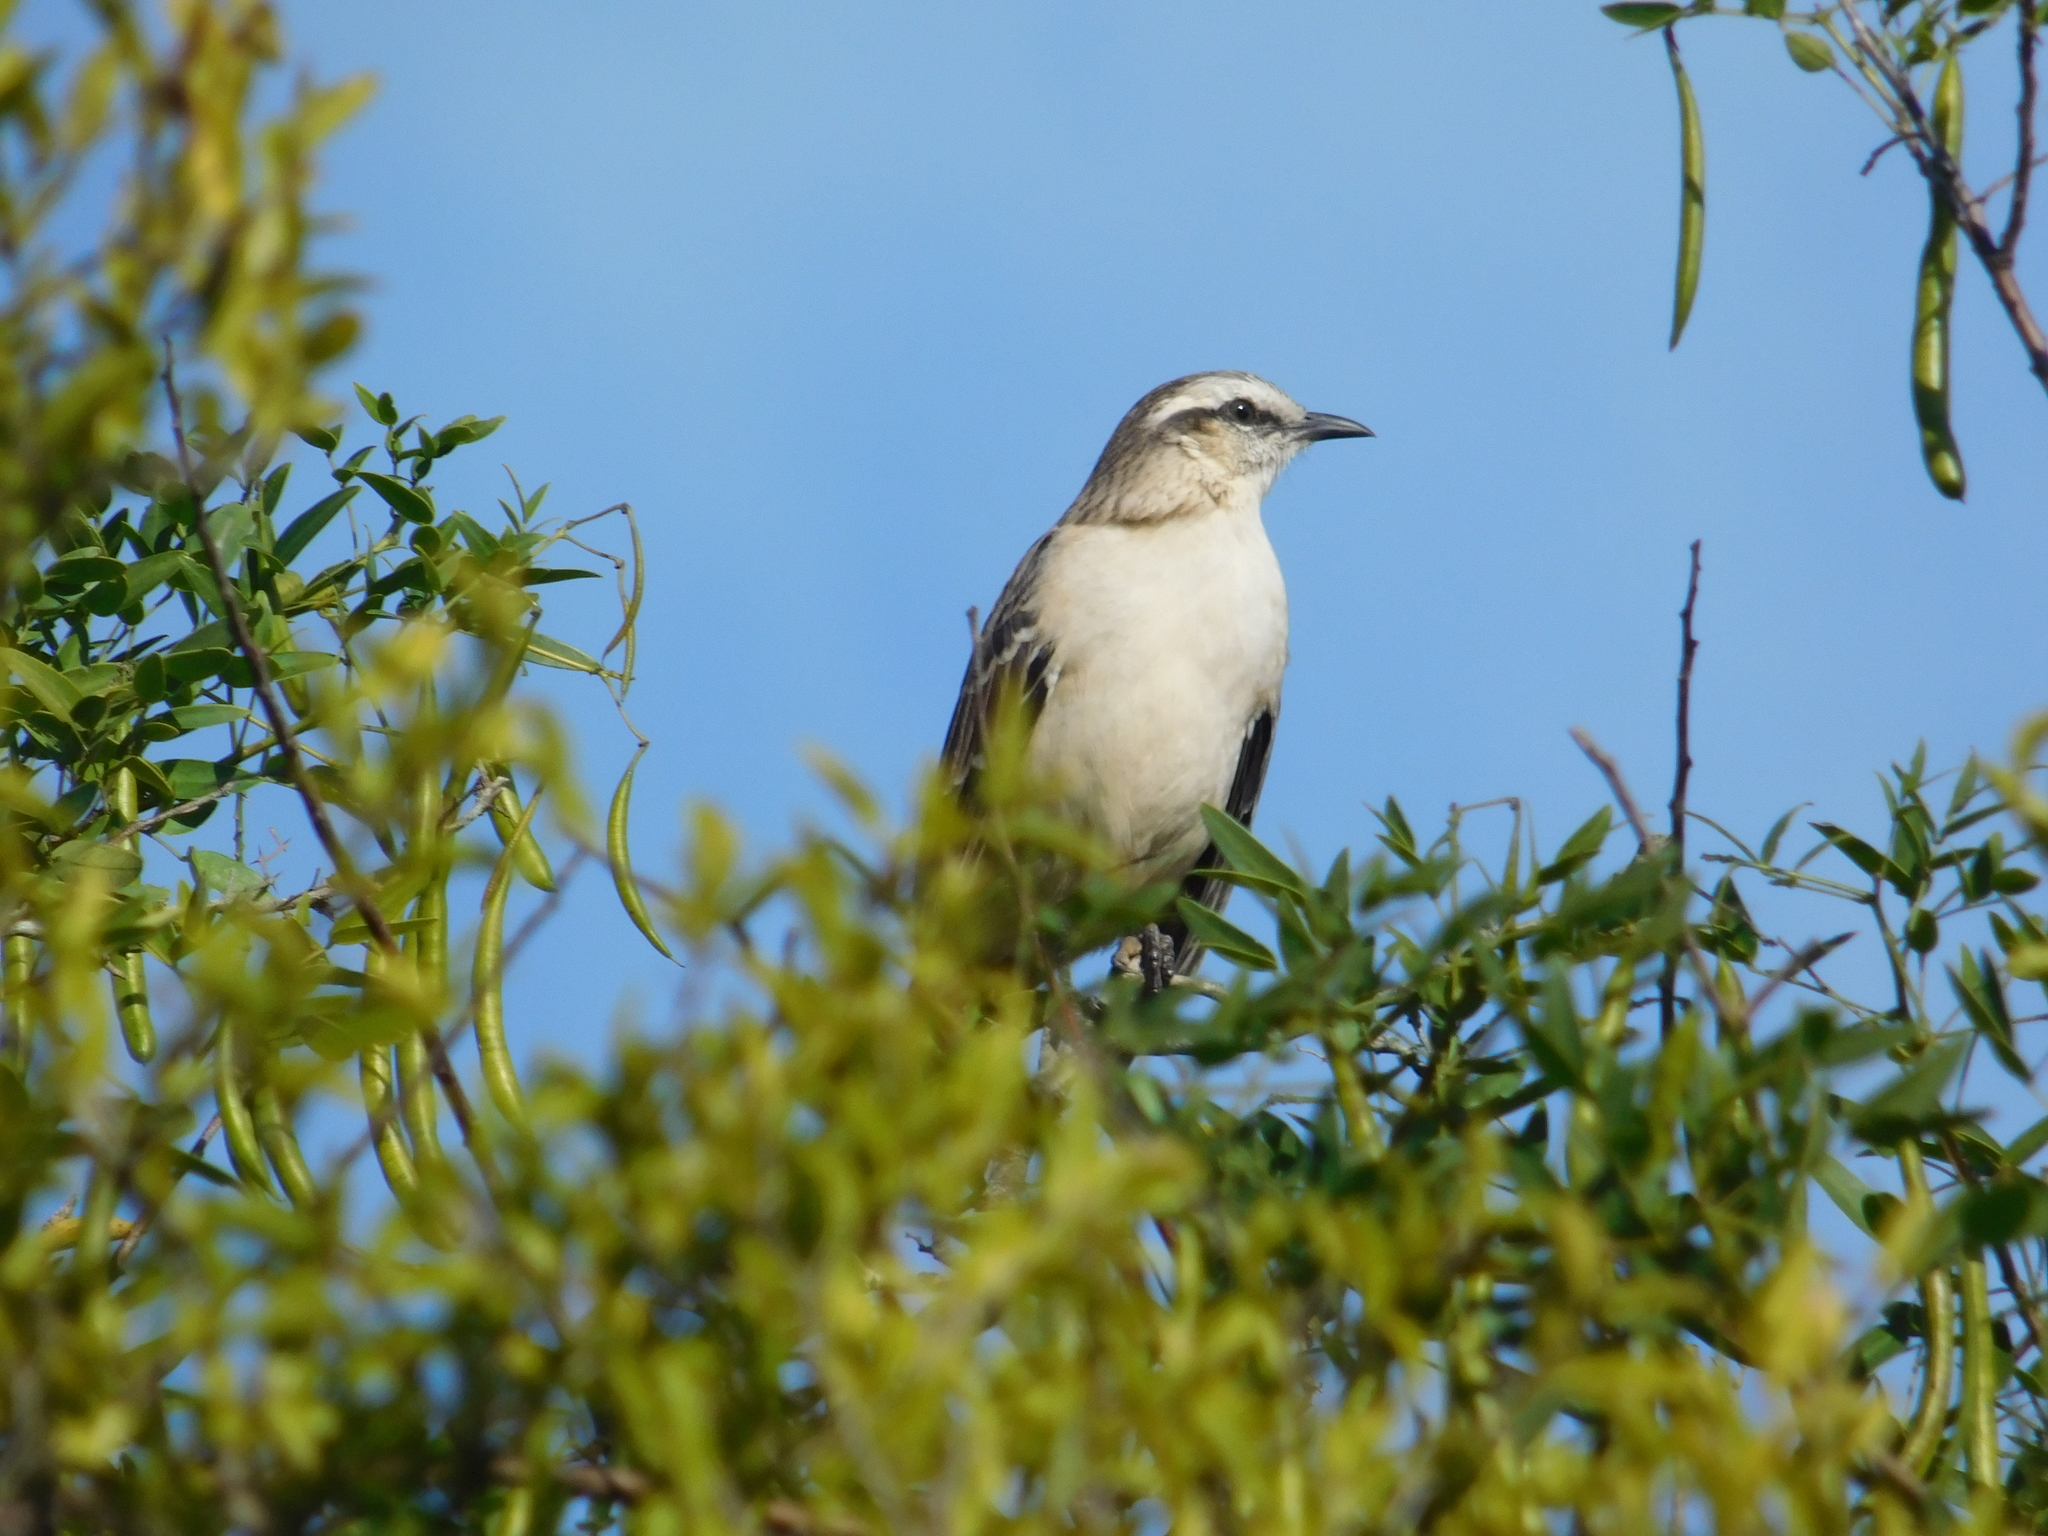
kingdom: Animalia
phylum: Chordata
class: Aves
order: Passeriformes
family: Mimidae
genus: Mimus
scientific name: Mimus saturninus
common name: Chalk-browed mockingbird
